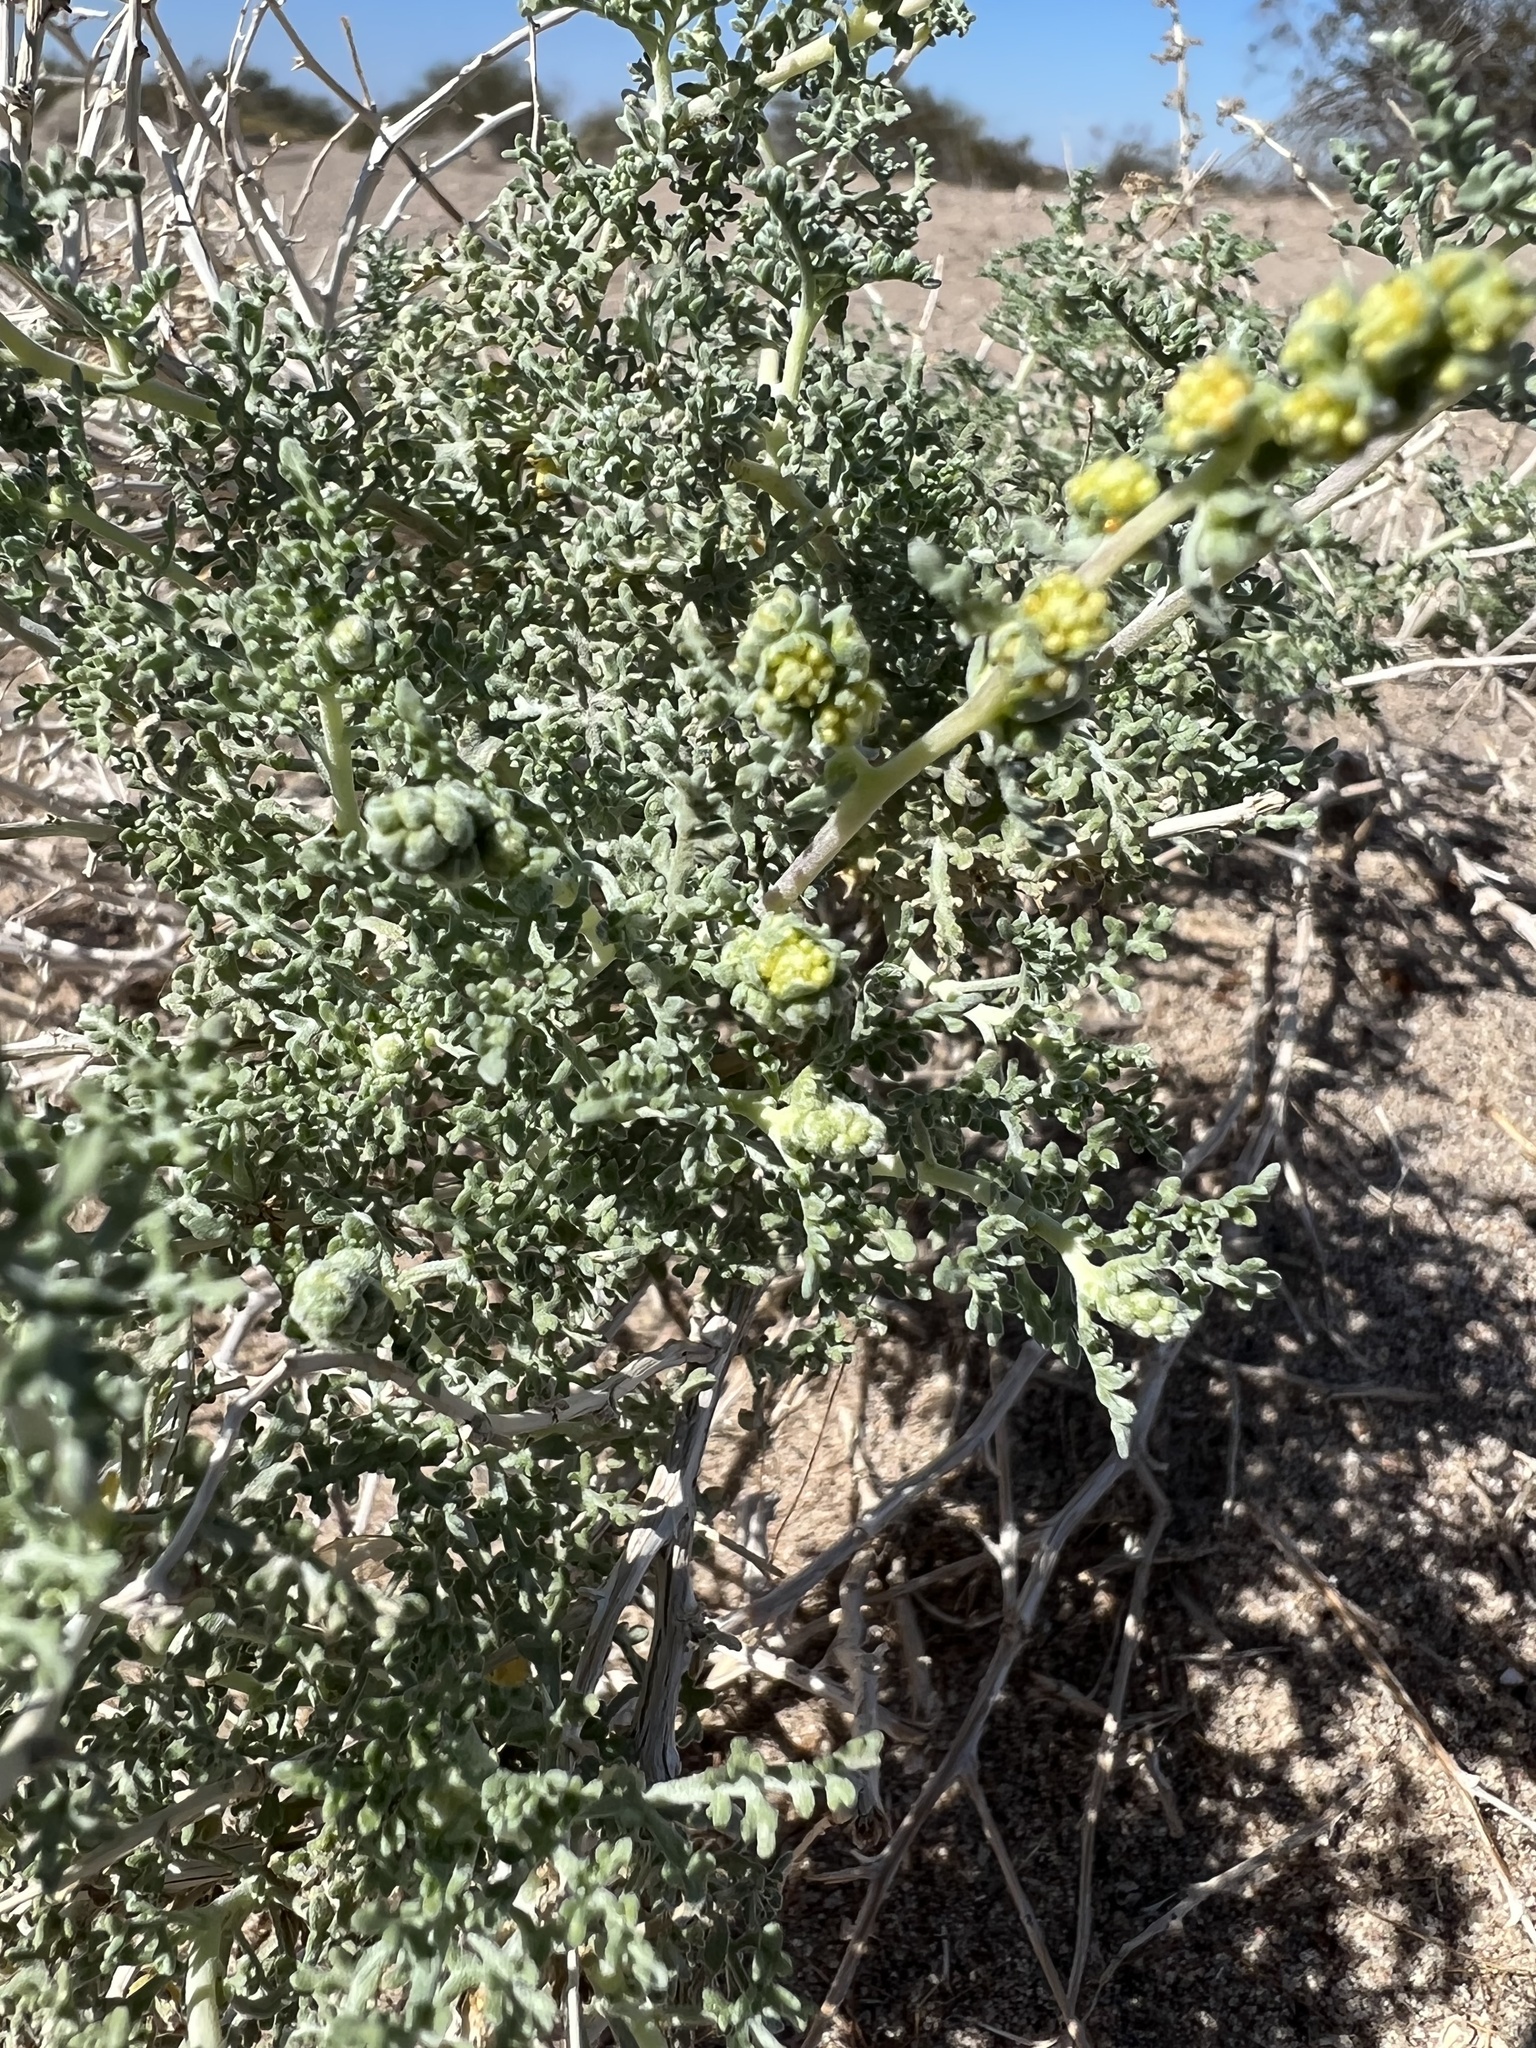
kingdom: Plantae
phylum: Tracheophyta
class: Magnoliopsida
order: Asterales
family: Asteraceae
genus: Ambrosia
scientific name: Ambrosia dumosa
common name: Bur-sage
